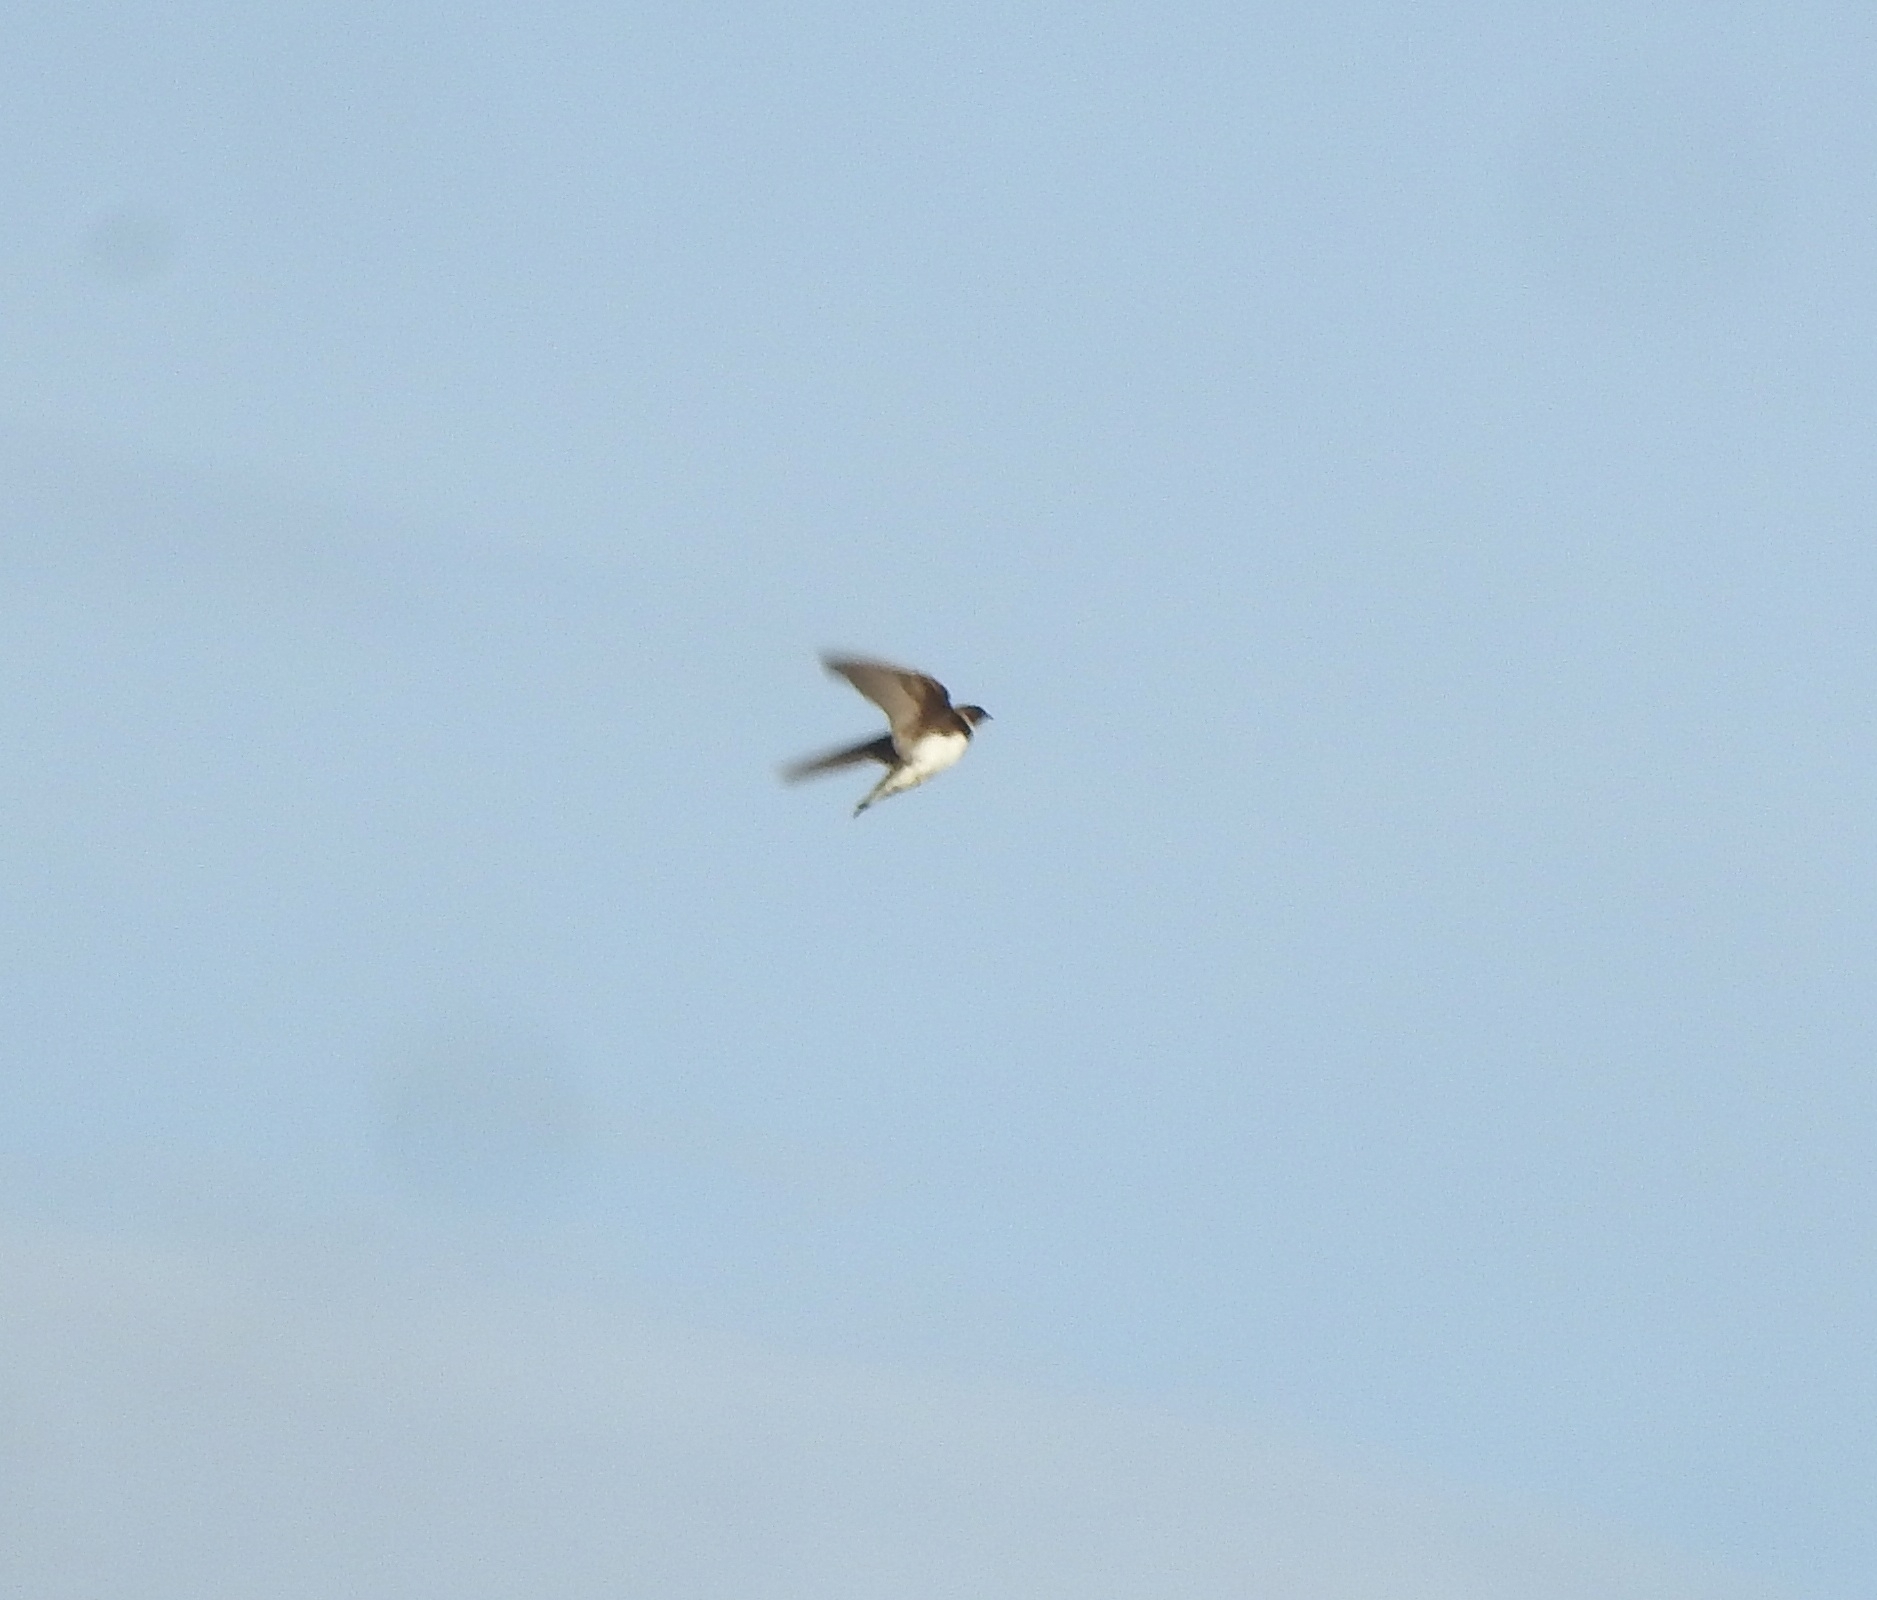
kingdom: Animalia
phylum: Chordata
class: Aves
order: Passeriformes
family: Hirundinidae
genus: Riparia
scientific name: Riparia riparia
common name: Sand martin
